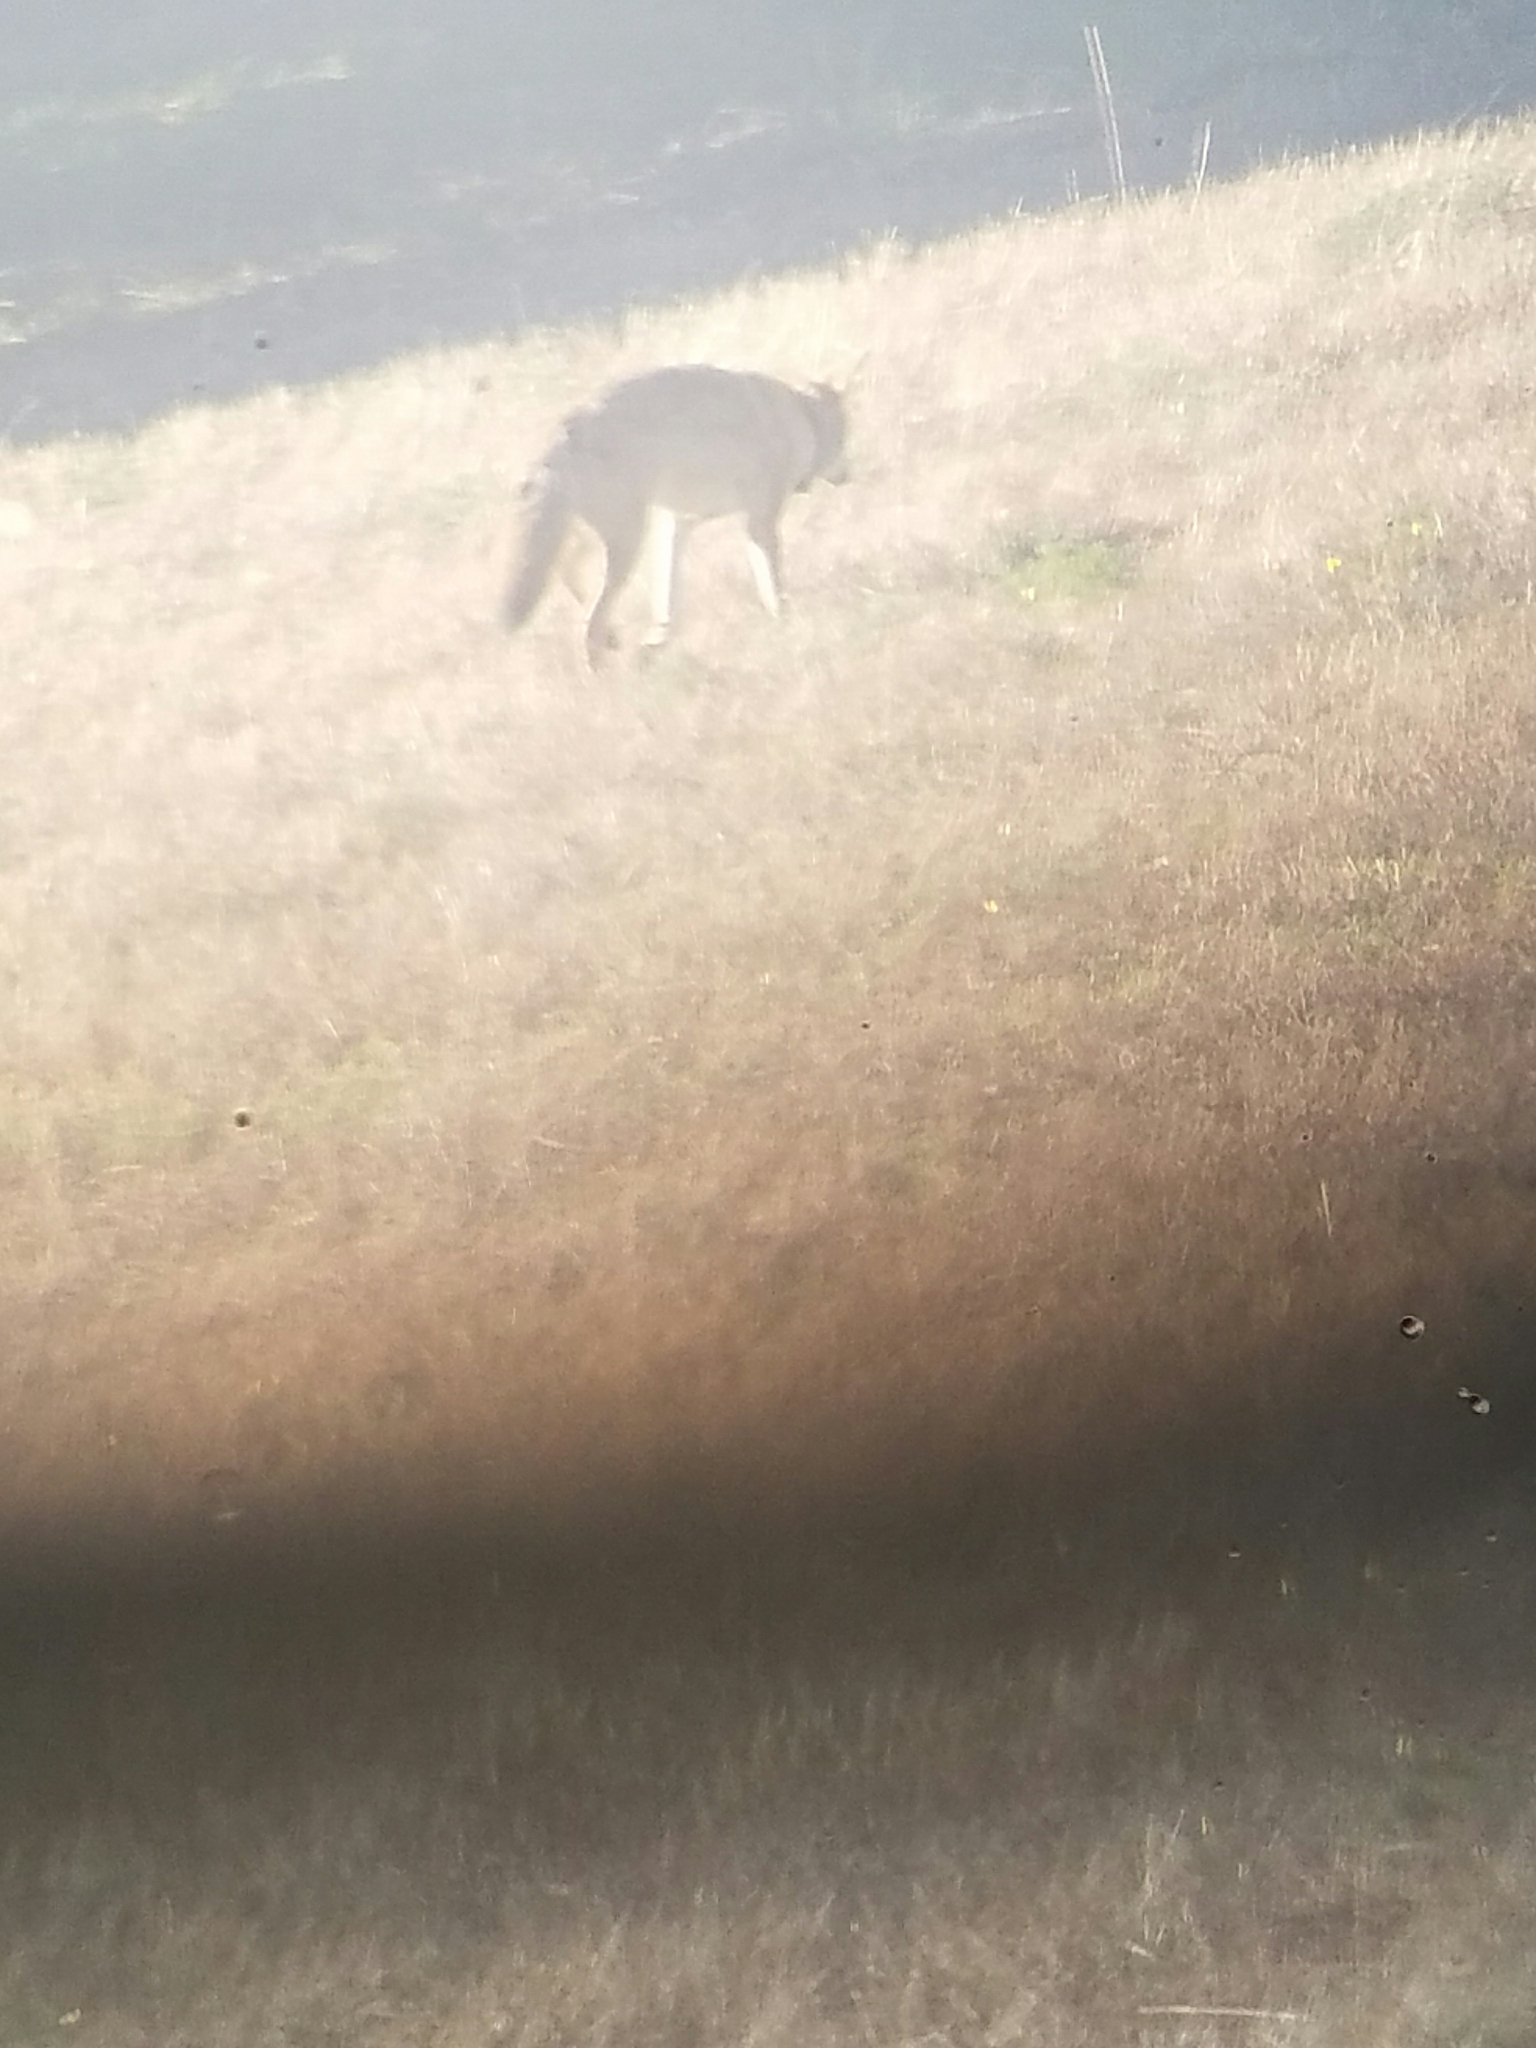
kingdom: Animalia
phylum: Chordata
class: Mammalia
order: Carnivora
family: Canidae
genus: Canis
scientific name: Canis latrans
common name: Coyote
